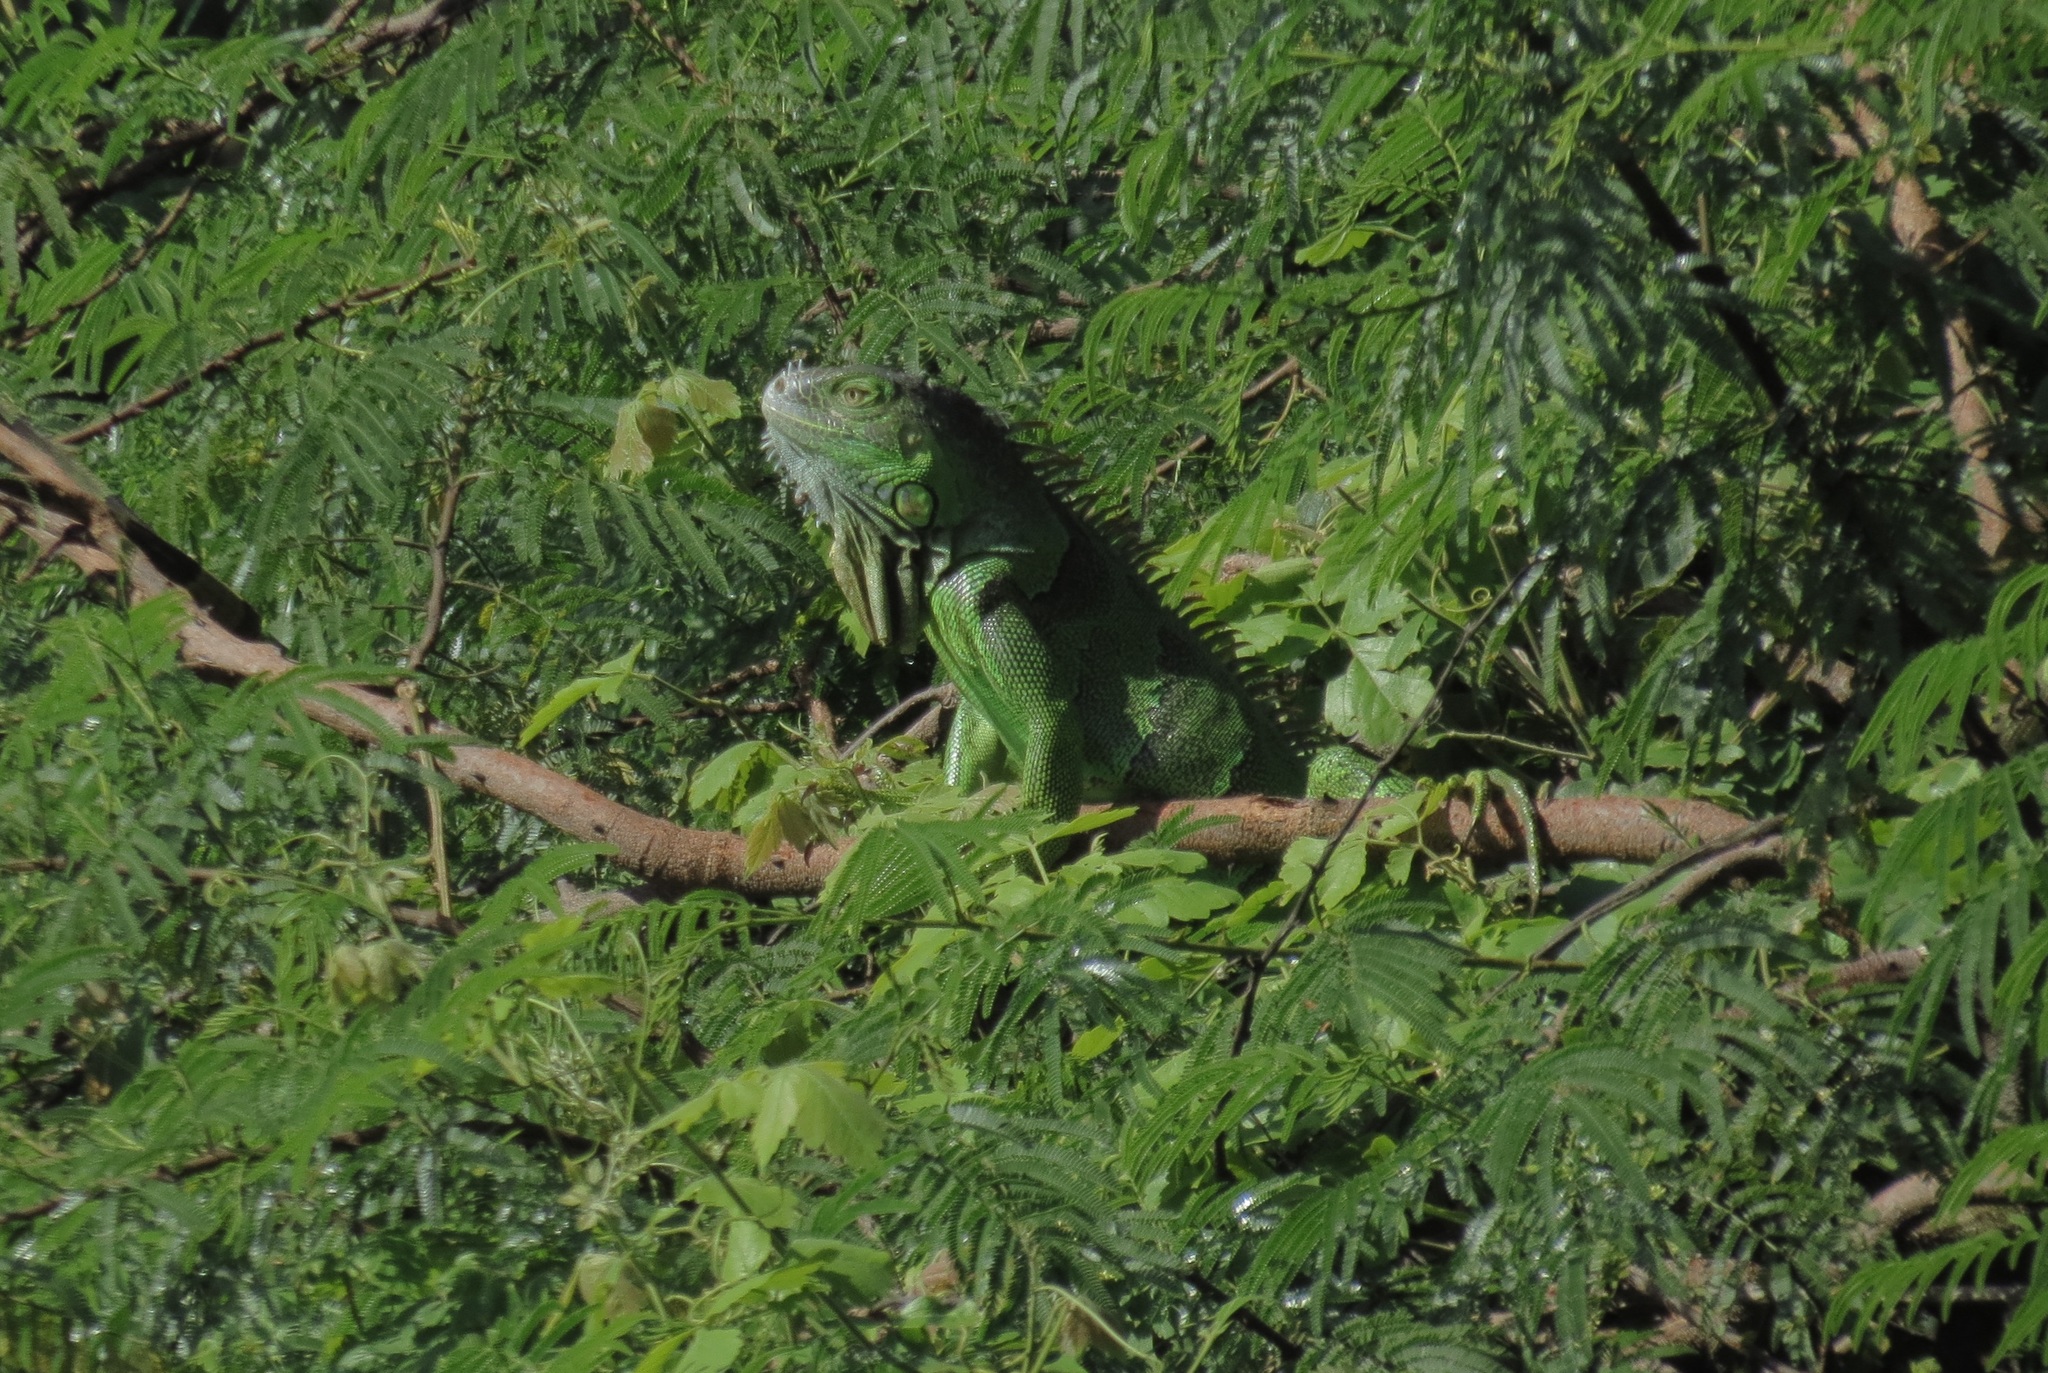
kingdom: Animalia
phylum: Chordata
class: Squamata
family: Iguanidae
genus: Iguana
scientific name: Iguana iguana
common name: Green iguana
